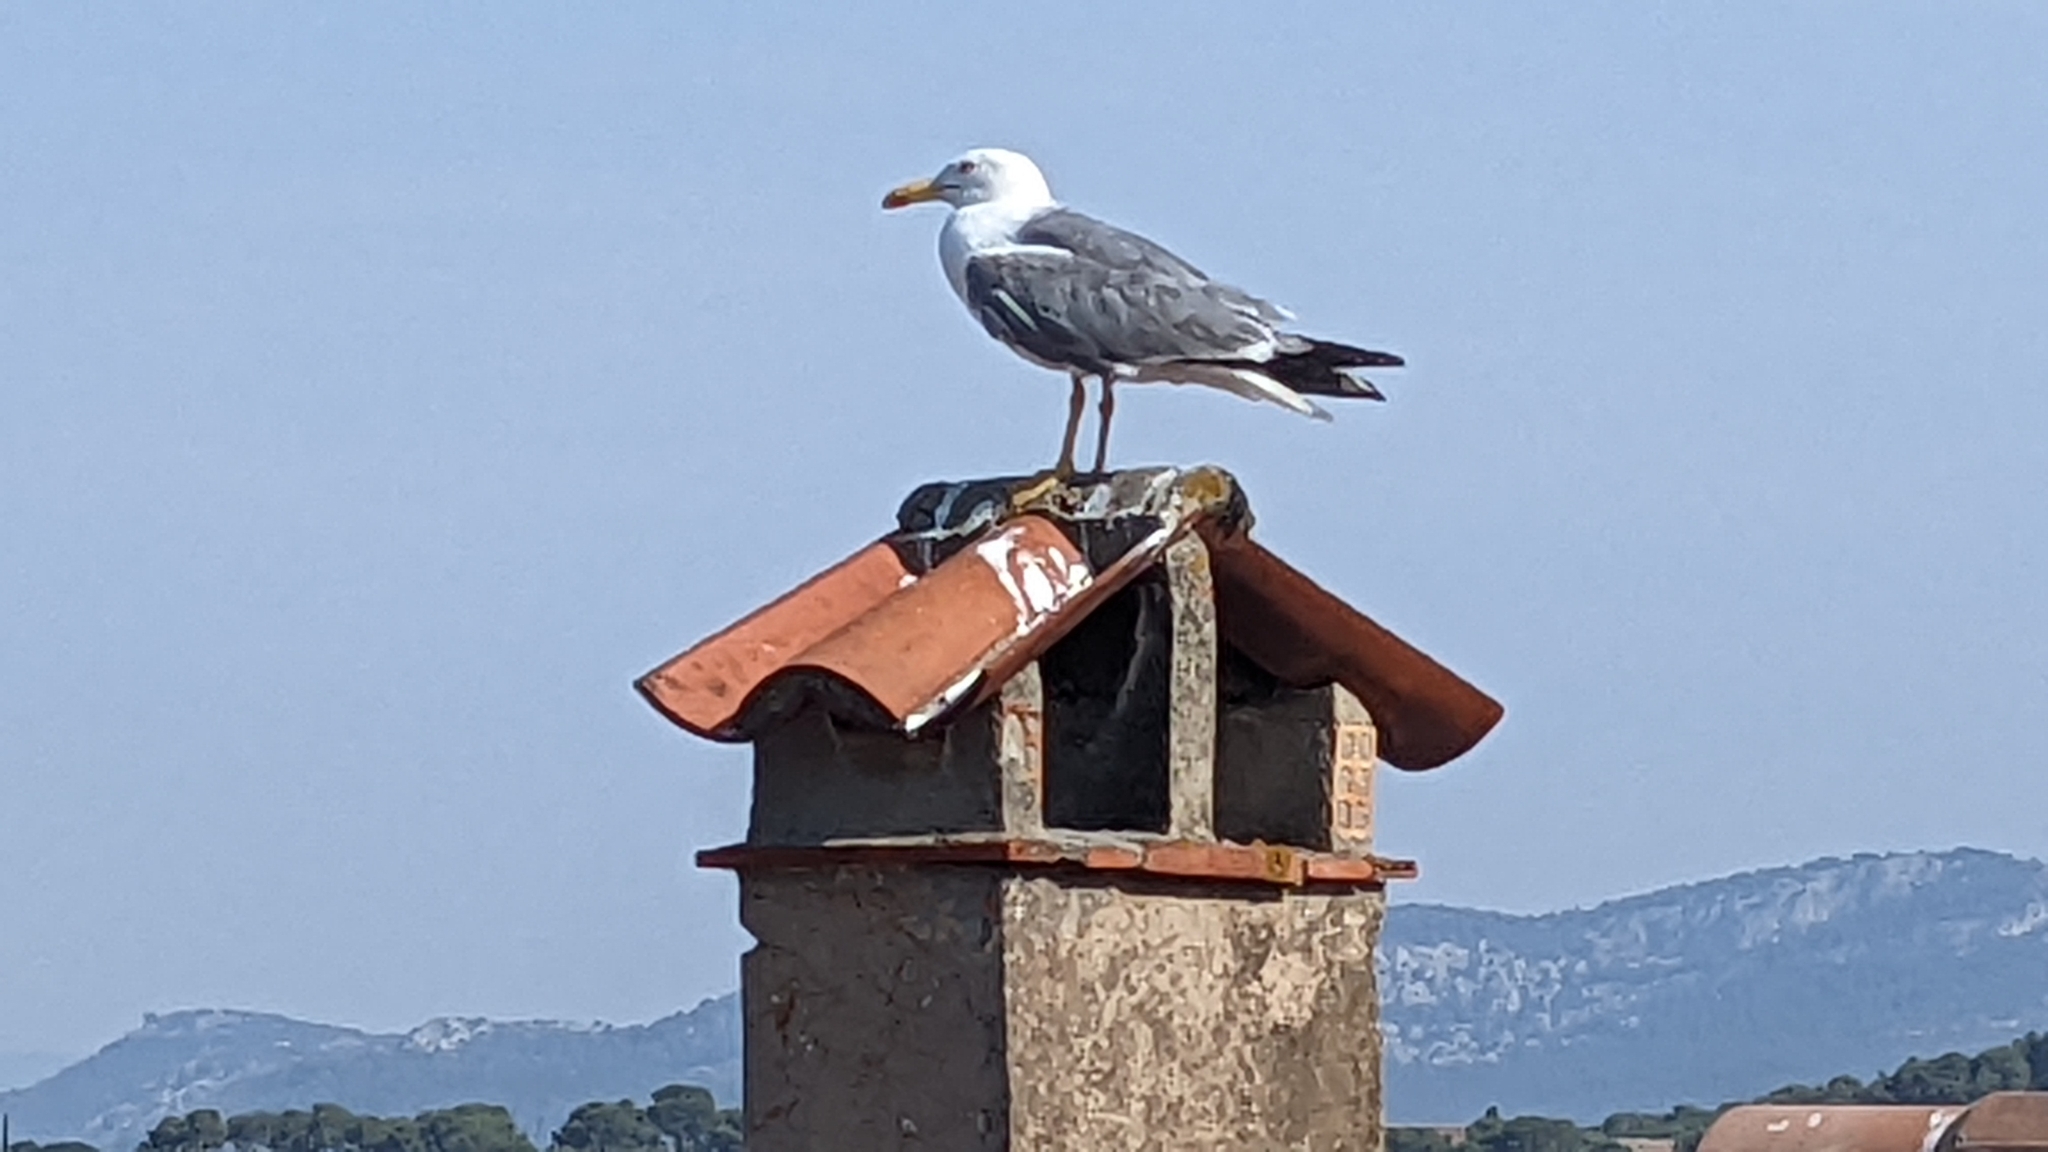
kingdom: Animalia
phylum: Chordata
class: Aves
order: Charadriiformes
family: Laridae
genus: Larus
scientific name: Larus michahellis
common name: Yellow-legged gull
